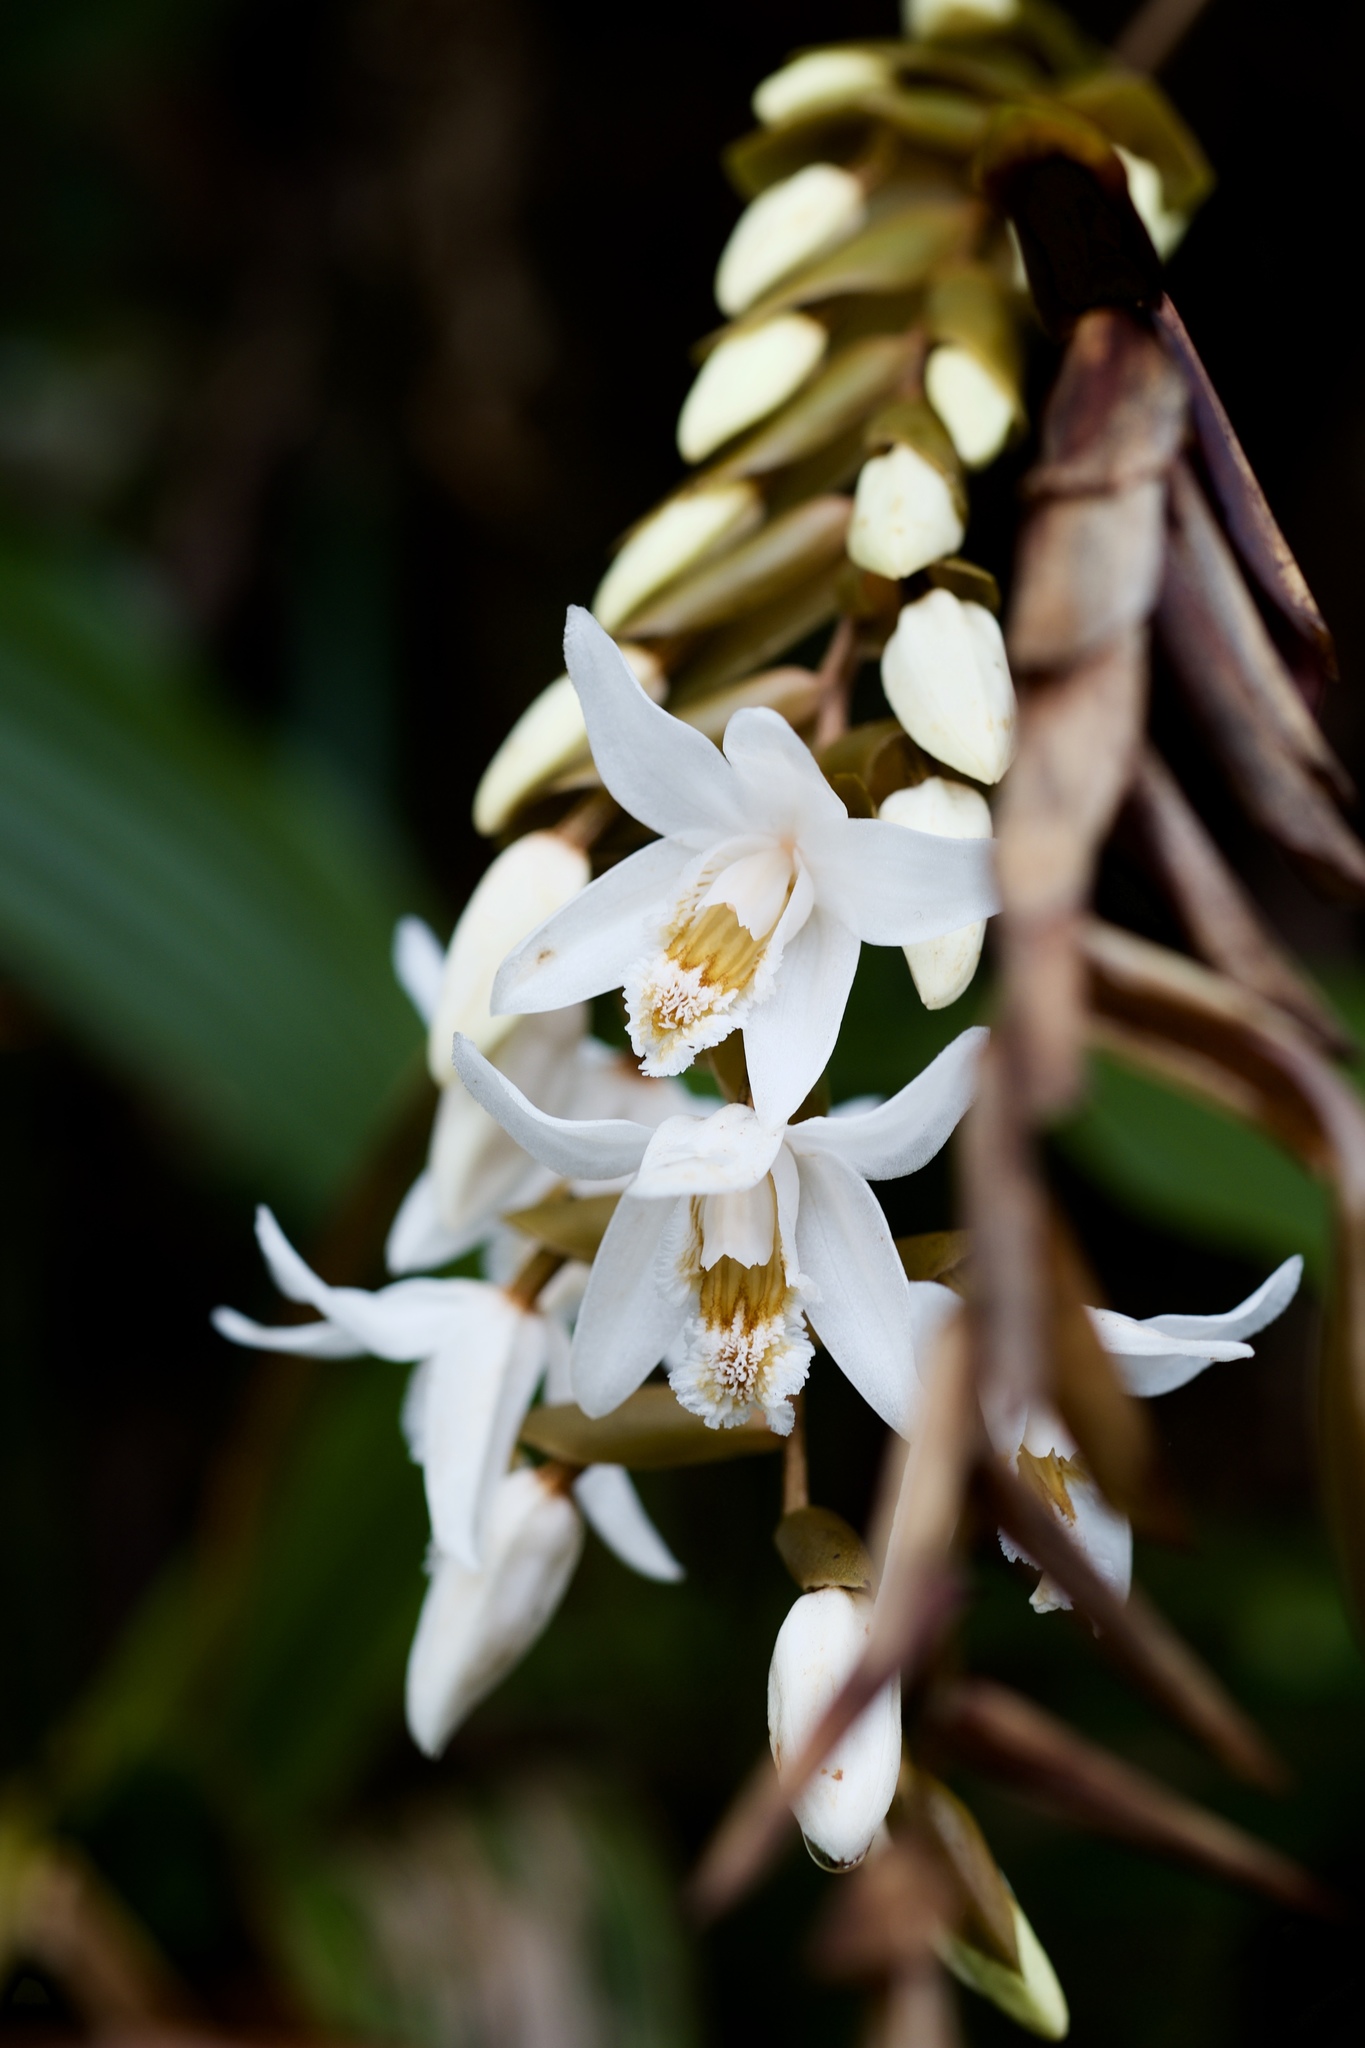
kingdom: Plantae
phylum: Tracheophyta
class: Liliopsida
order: Asparagales
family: Orchidaceae
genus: Coelogyne
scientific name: Coelogyne papillosa
